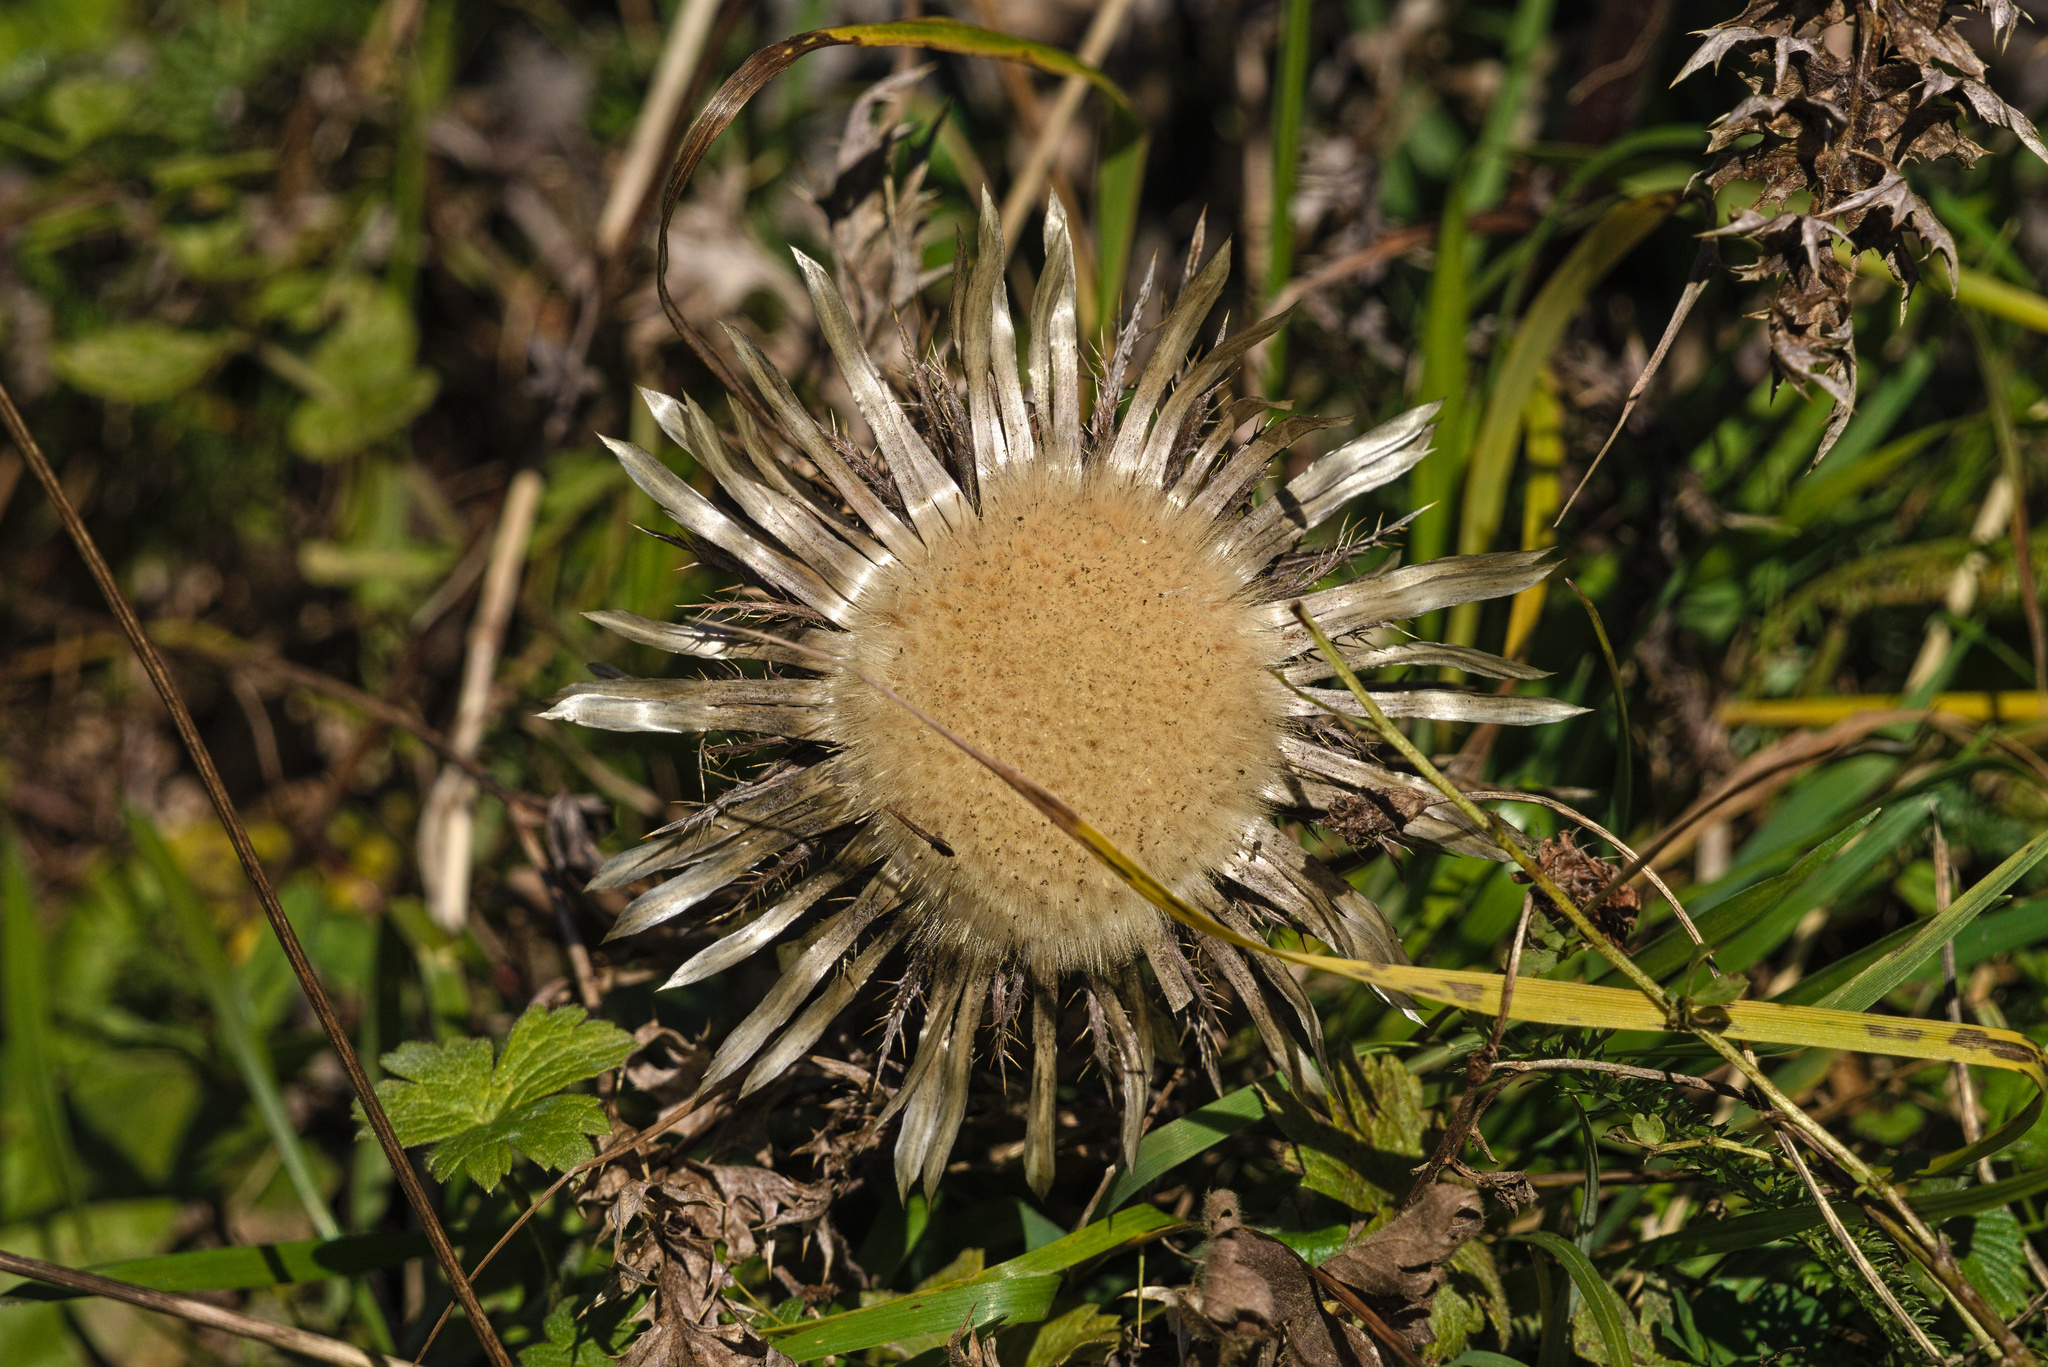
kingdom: Plantae
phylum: Tracheophyta
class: Magnoliopsida
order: Asterales
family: Asteraceae
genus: Carlina
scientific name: Carlina acaulis
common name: Stemless carline thistle
